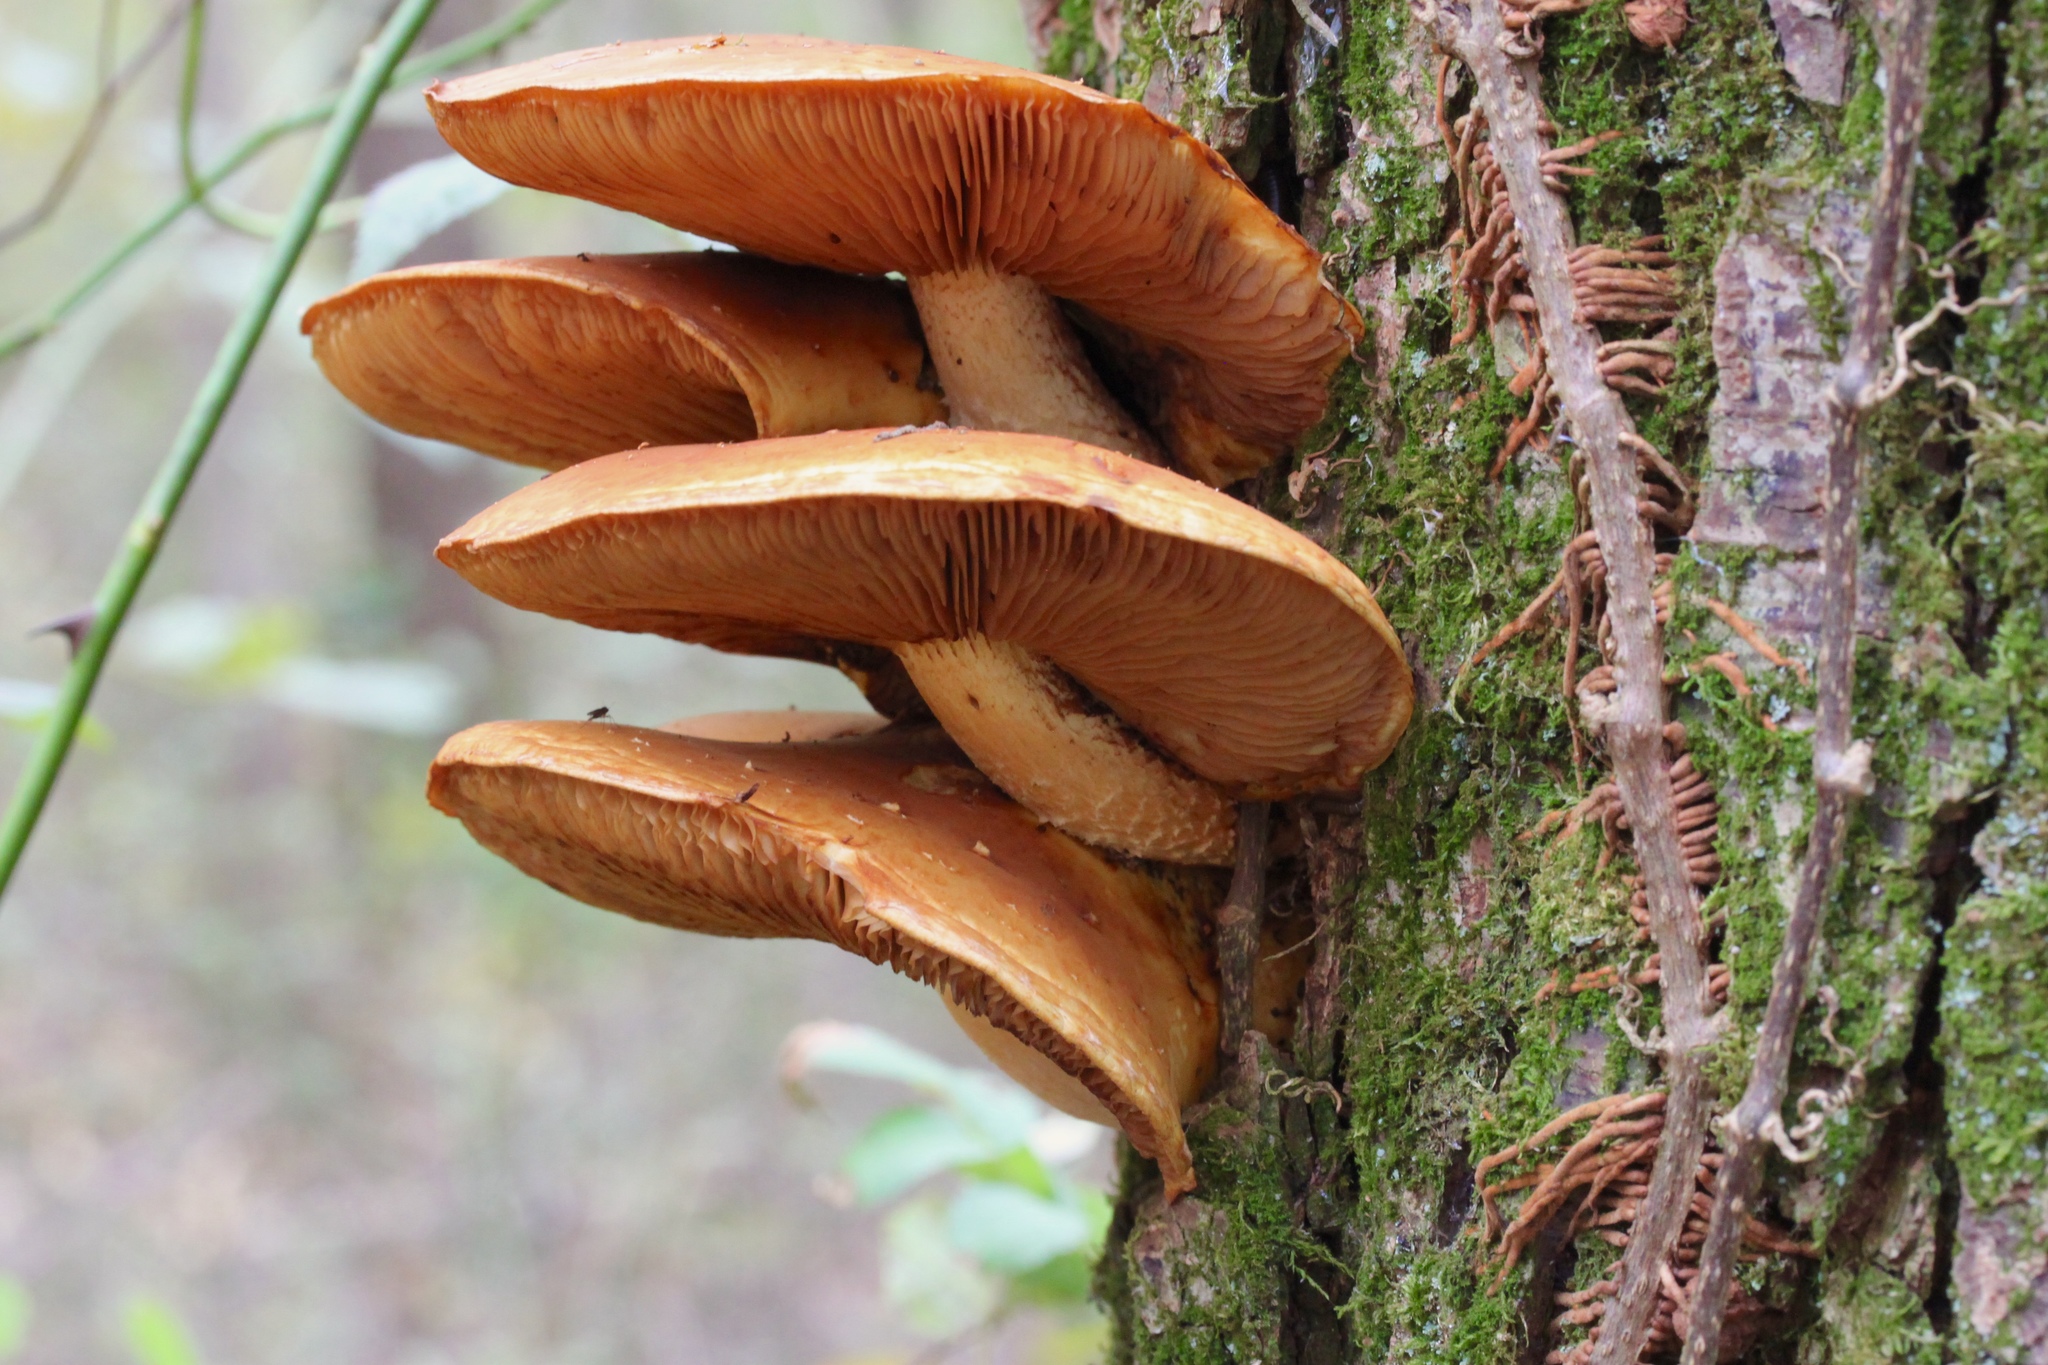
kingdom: Fungi
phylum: Basidiomycota
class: Agaricomycetes
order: Agaricales
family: Strophariaceae
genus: Pholiota
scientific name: Pholiota aurivella
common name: Golden scalycap
